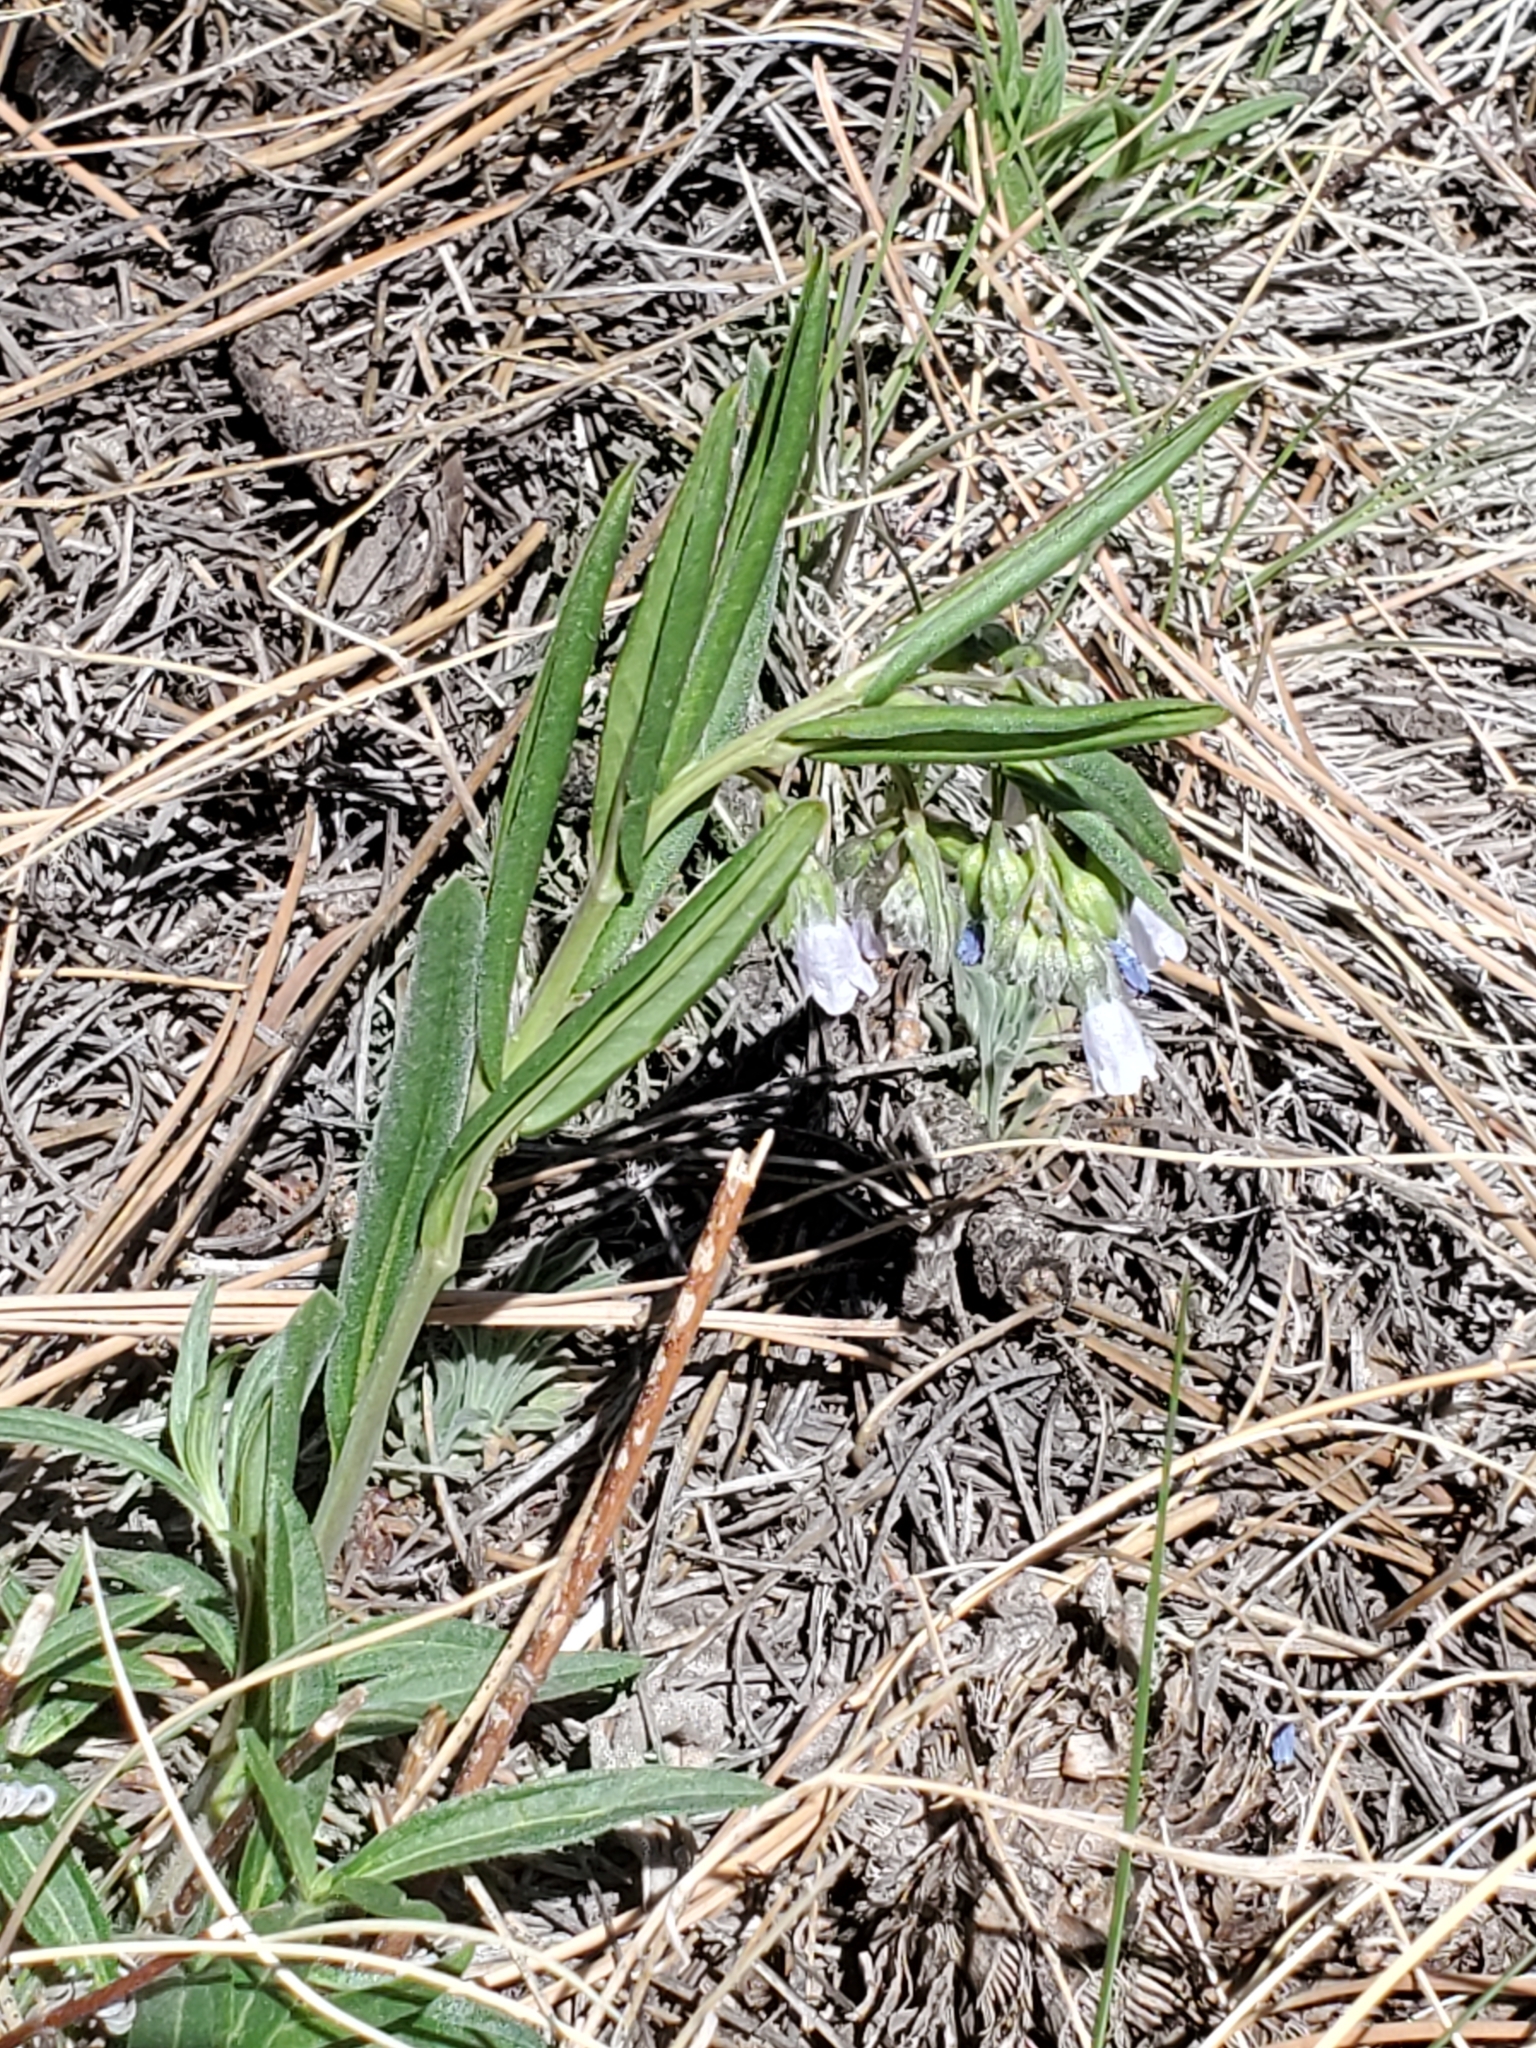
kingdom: Plantae
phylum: Tracheophyta
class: Magnoliopsida
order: Boraginales
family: Boraginaceae
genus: Mertensia
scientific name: Mertensia fendleri
